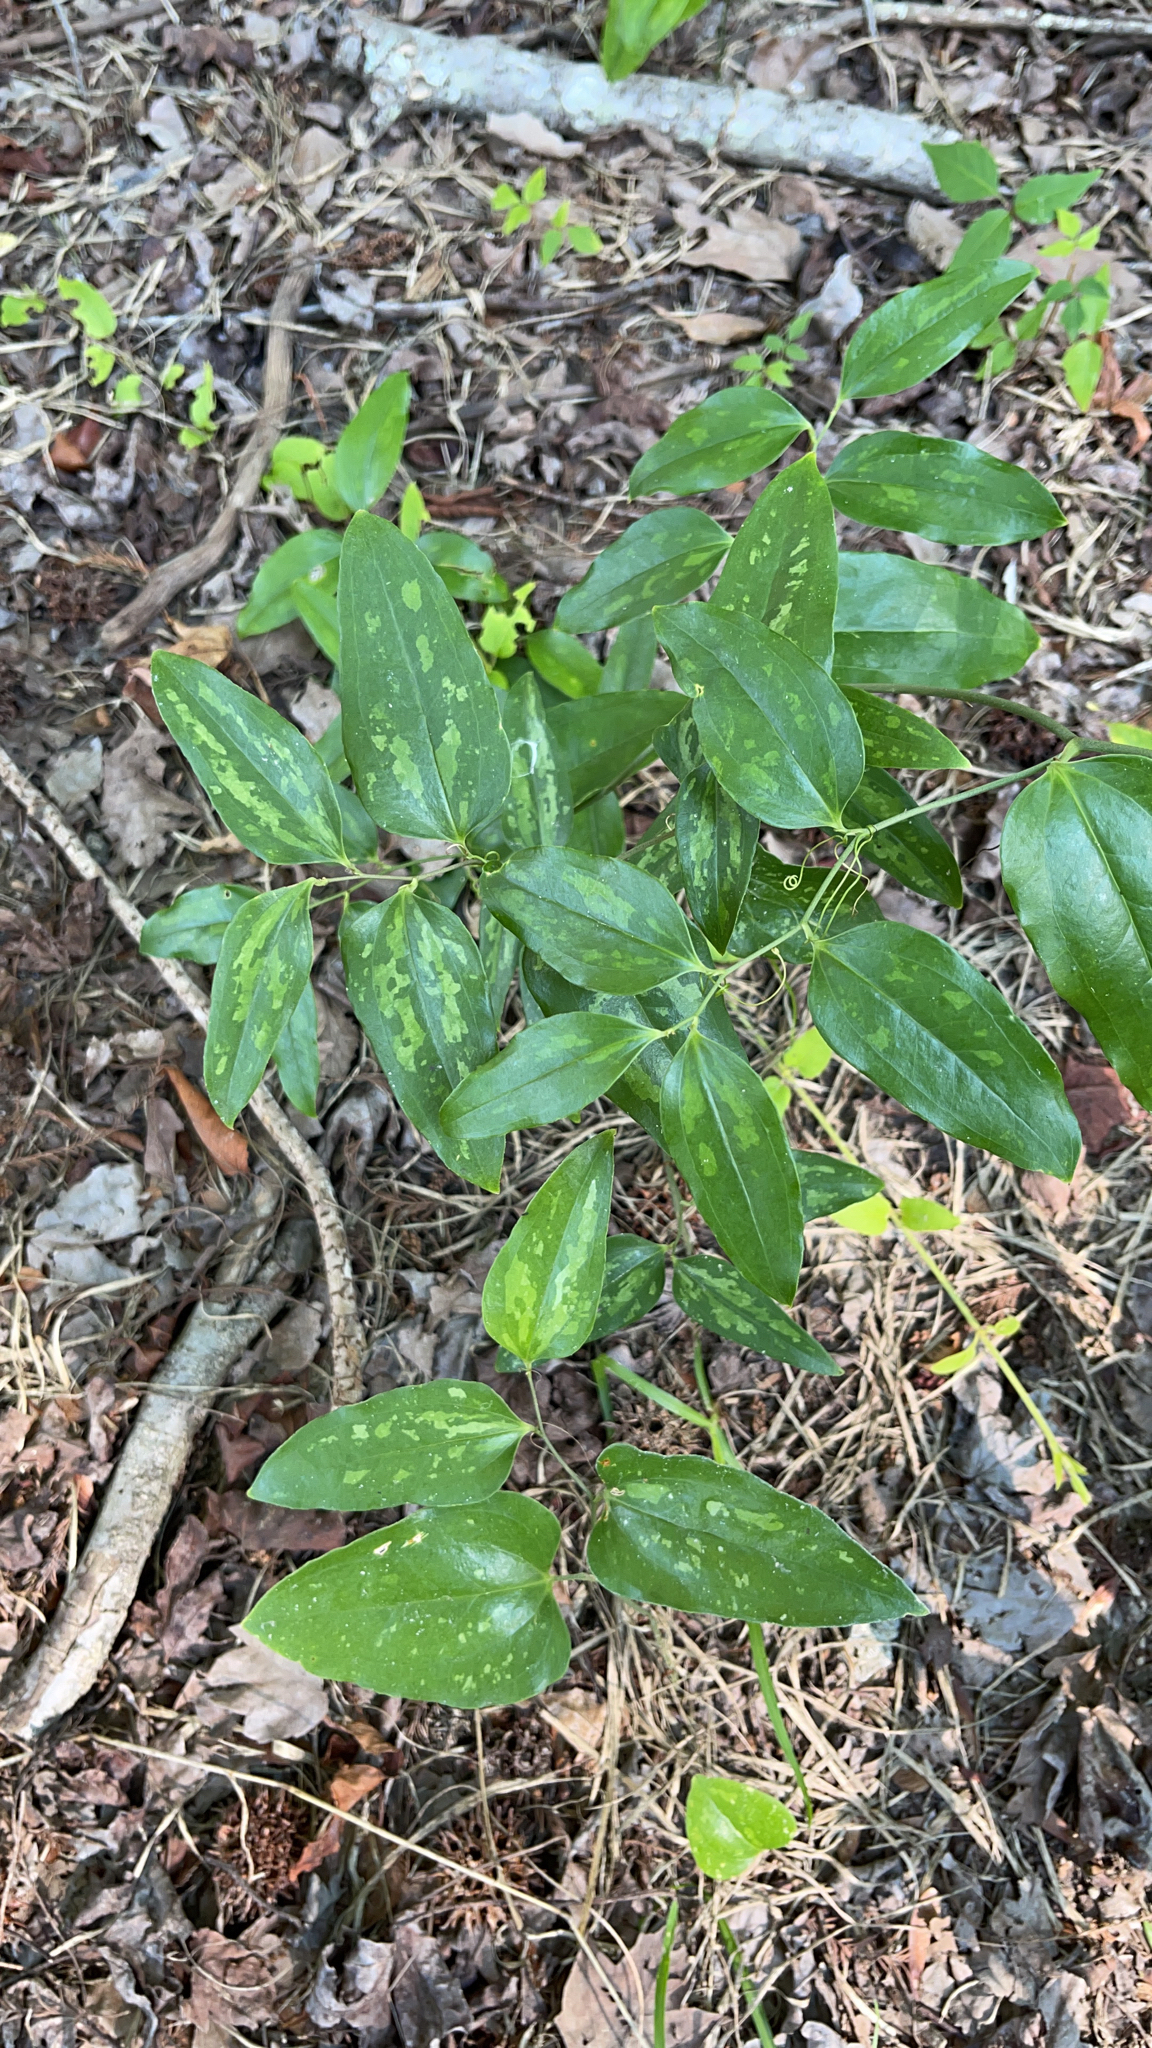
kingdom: Plantae
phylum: Tracheophyta
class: Liliopsida
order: Liliales
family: Smilacaceae
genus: Smilax
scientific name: Smilax maritima
